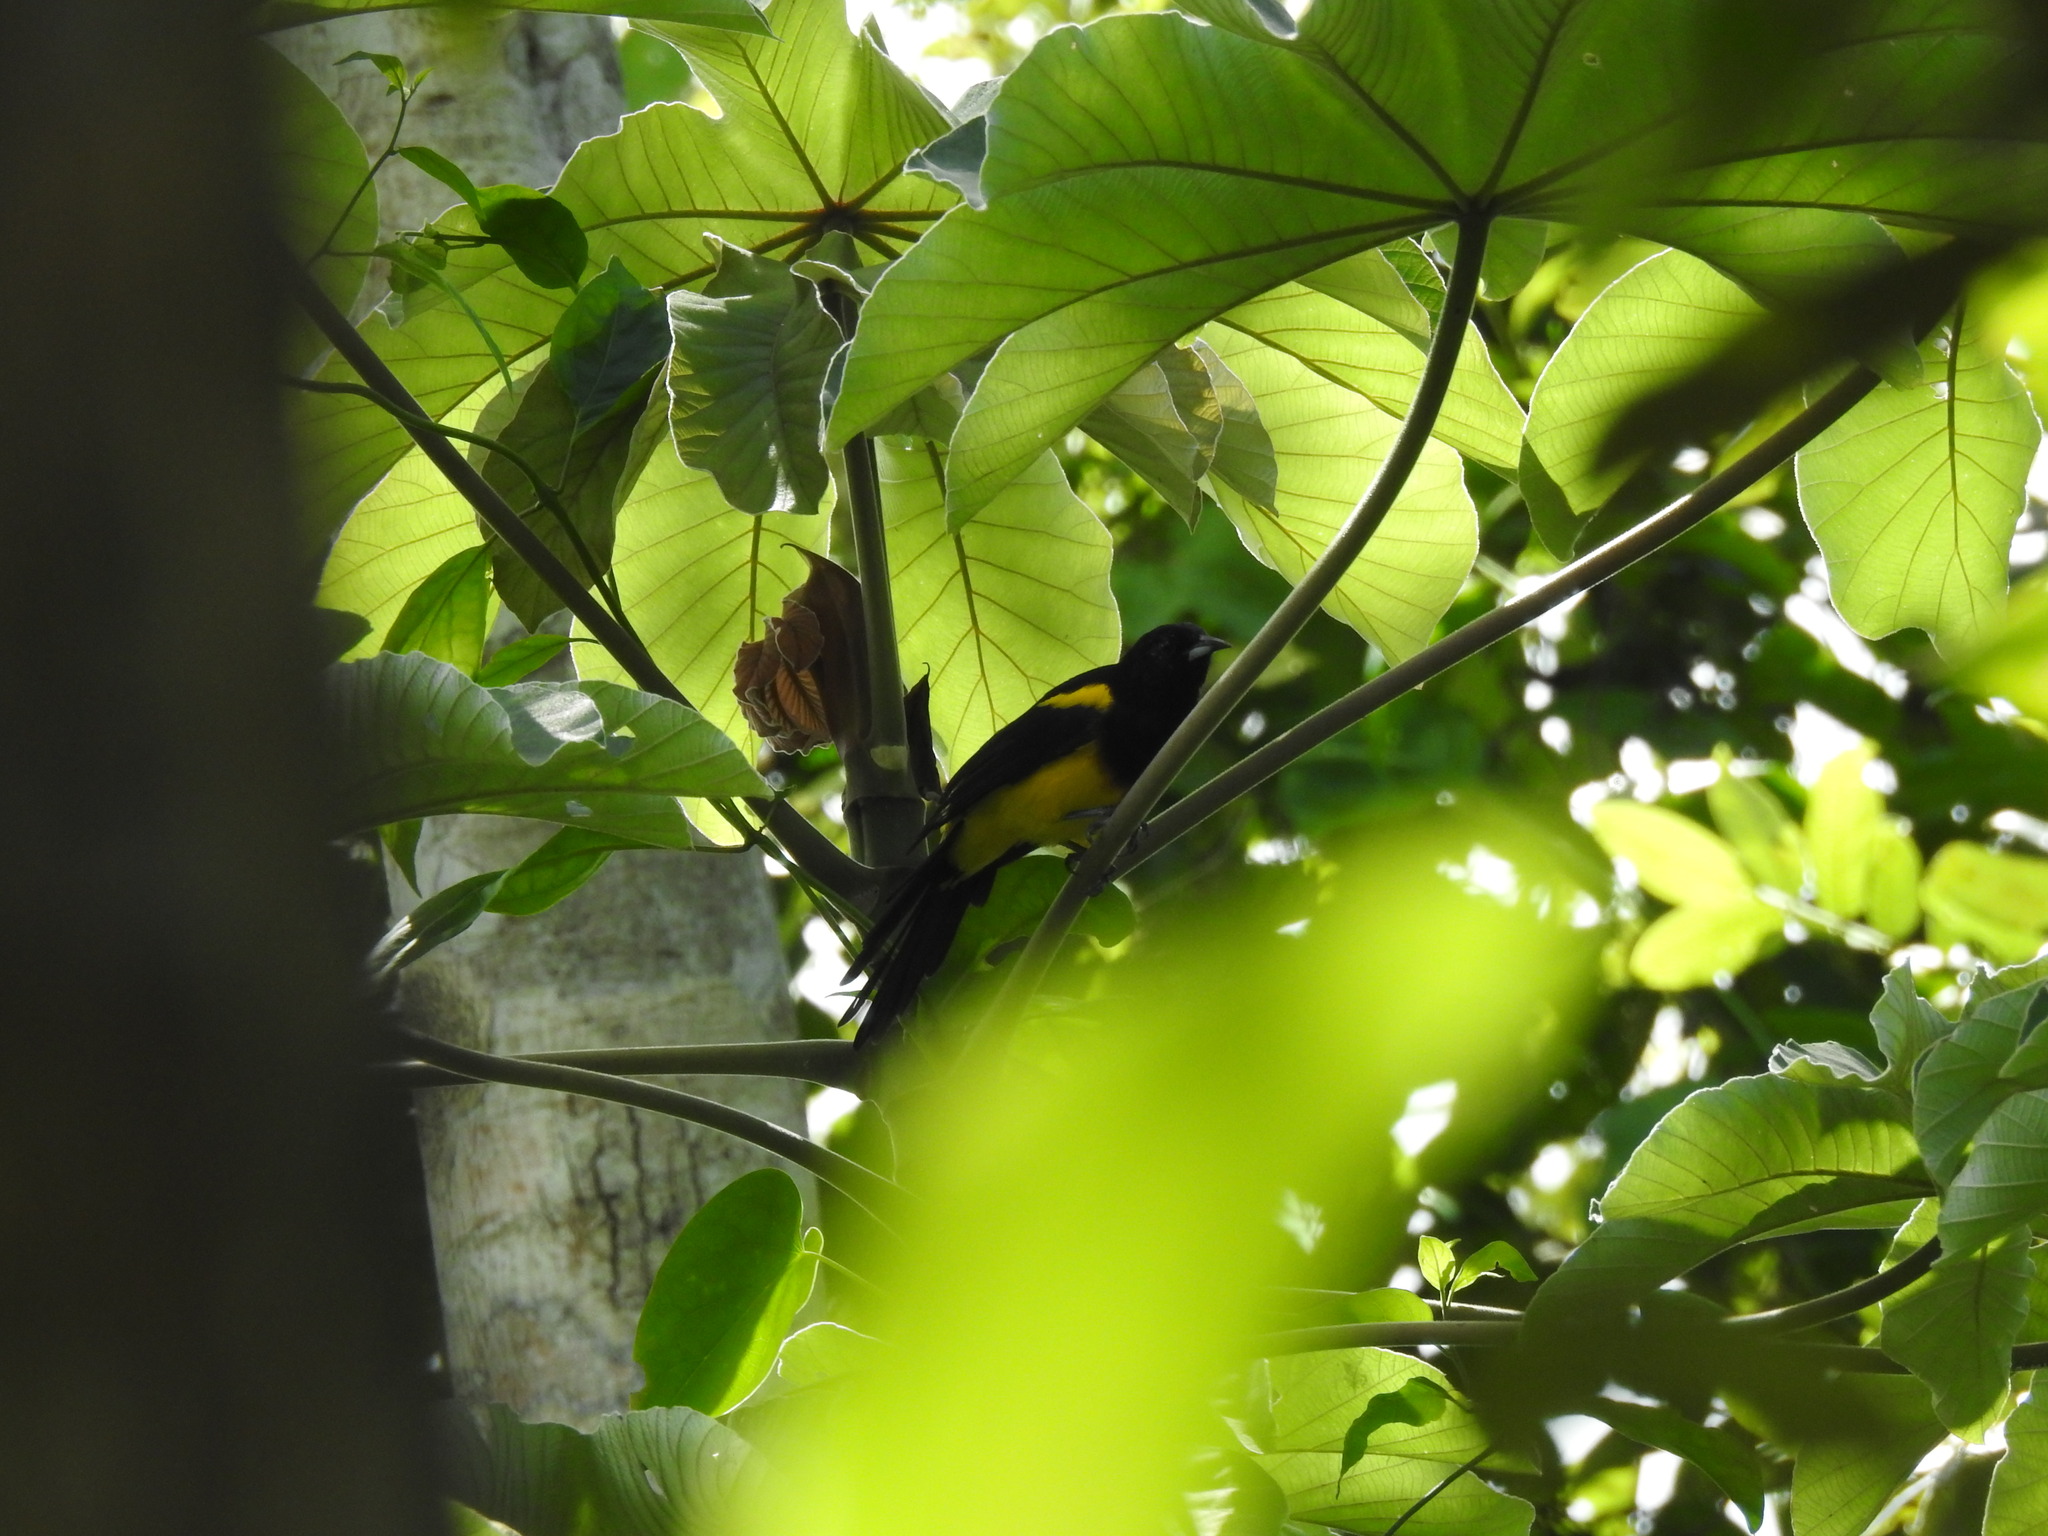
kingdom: Animalia
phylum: Chordata
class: Aves
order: Passeriformes
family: Icteridae
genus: Icterus
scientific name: Icterus prosthemelas
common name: Black-cowled oriole
